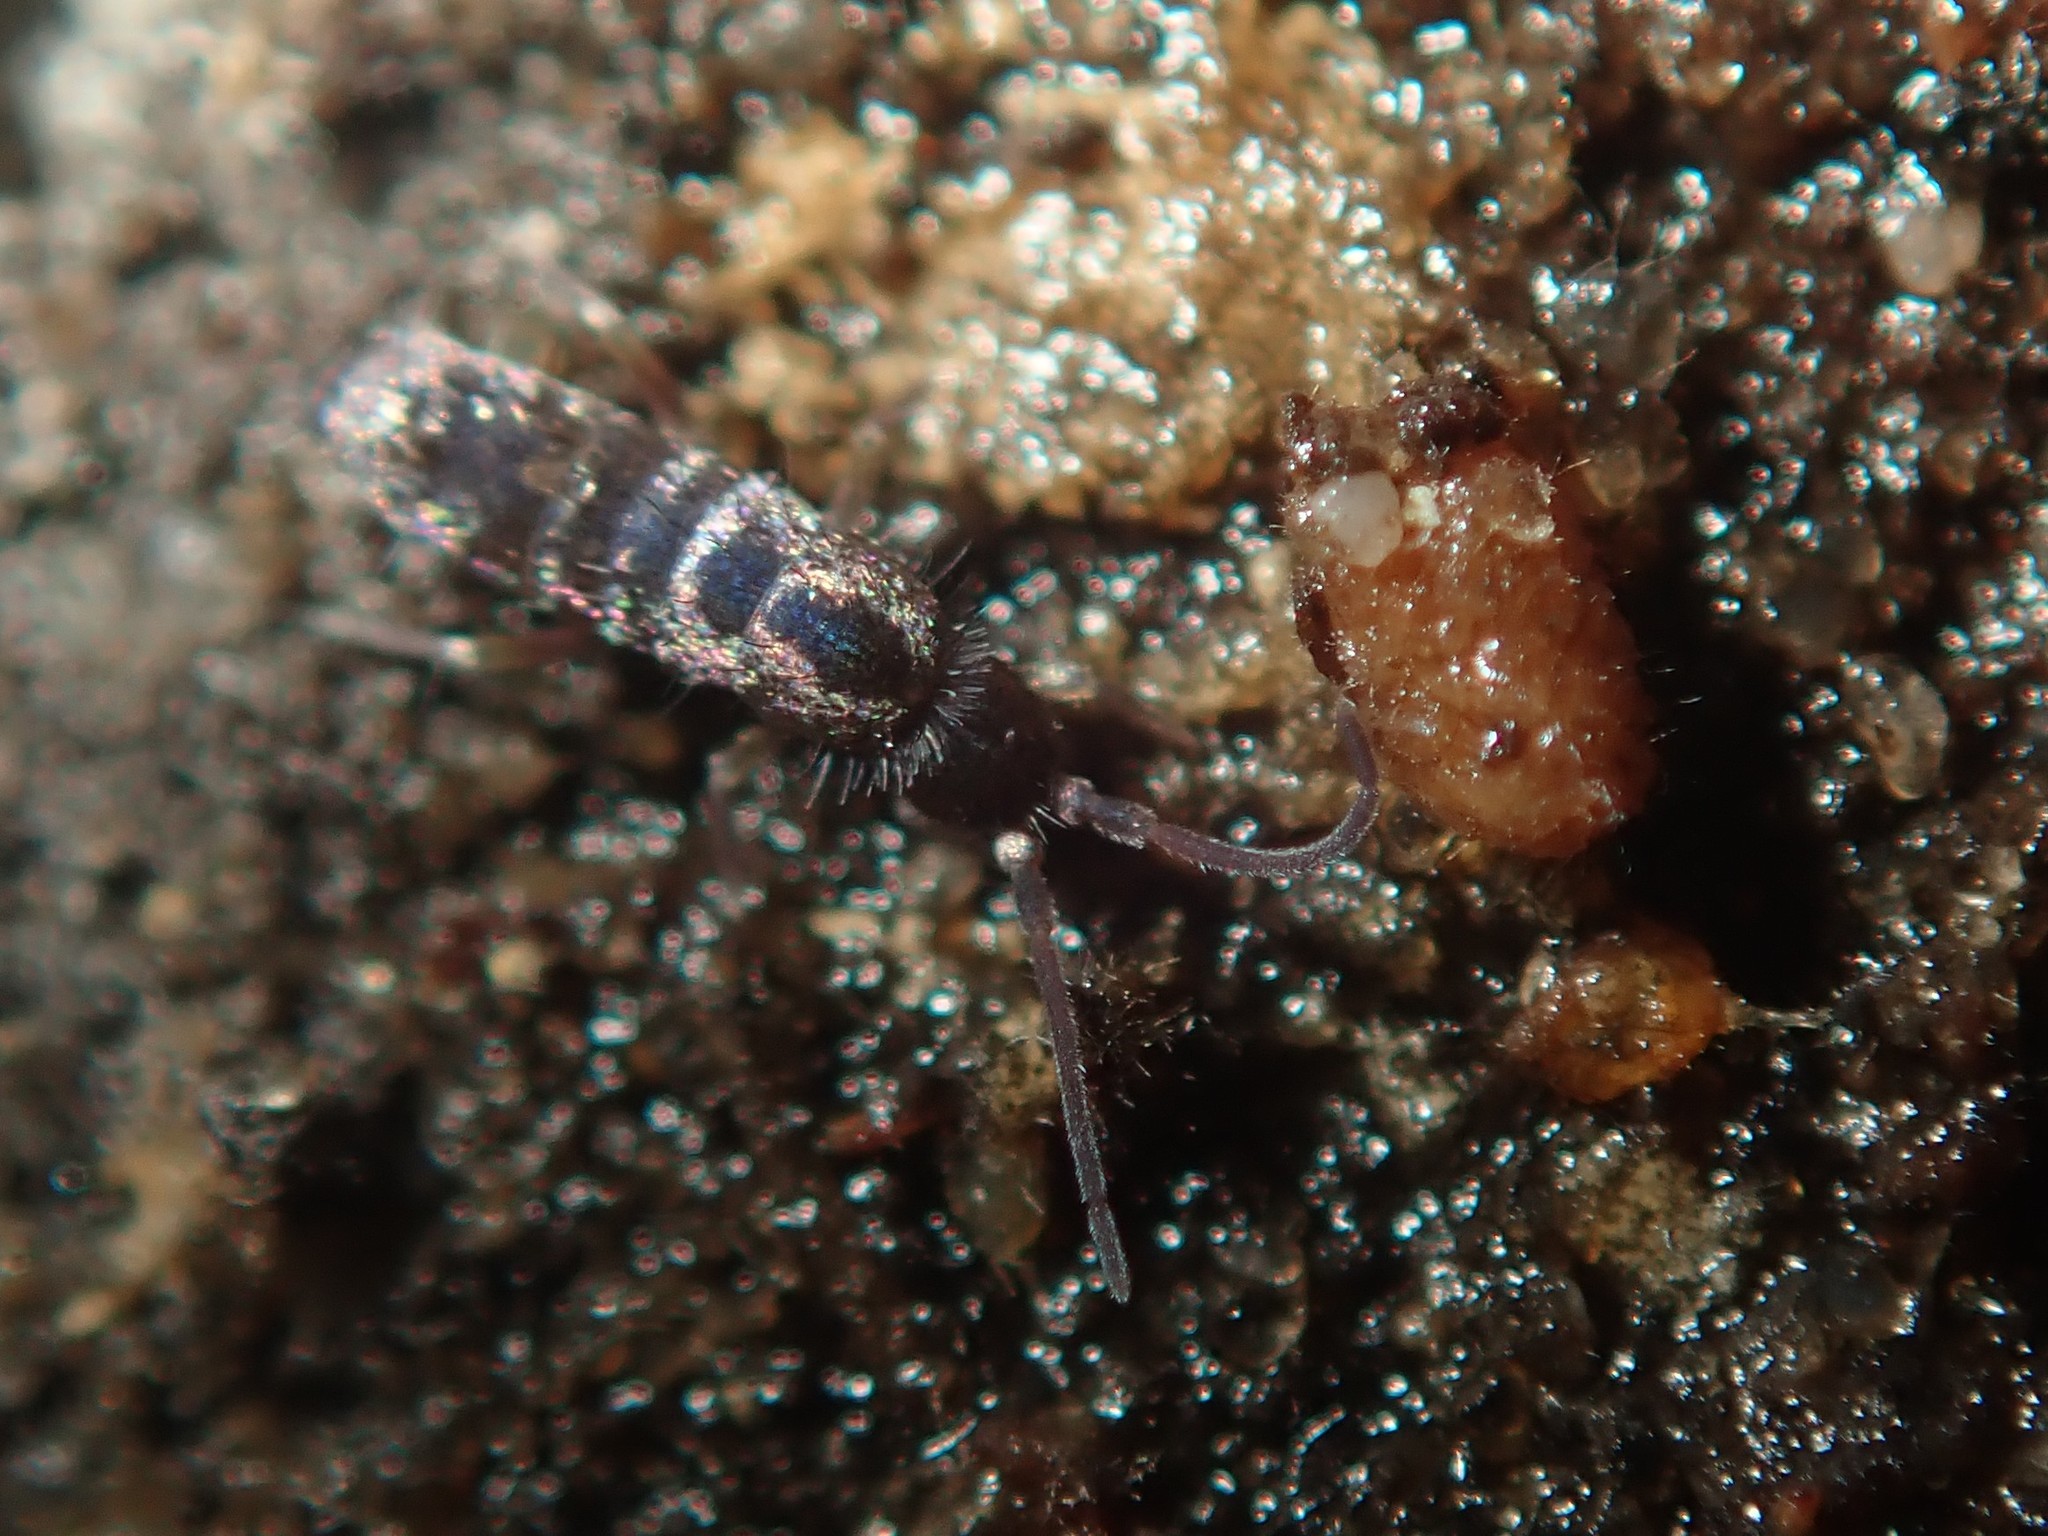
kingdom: Animalia
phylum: Arthropoda
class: Collembola
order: Entomobryomorpha
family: Tomoceridae
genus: Tomocerus
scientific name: Tomocerus vulgaris
